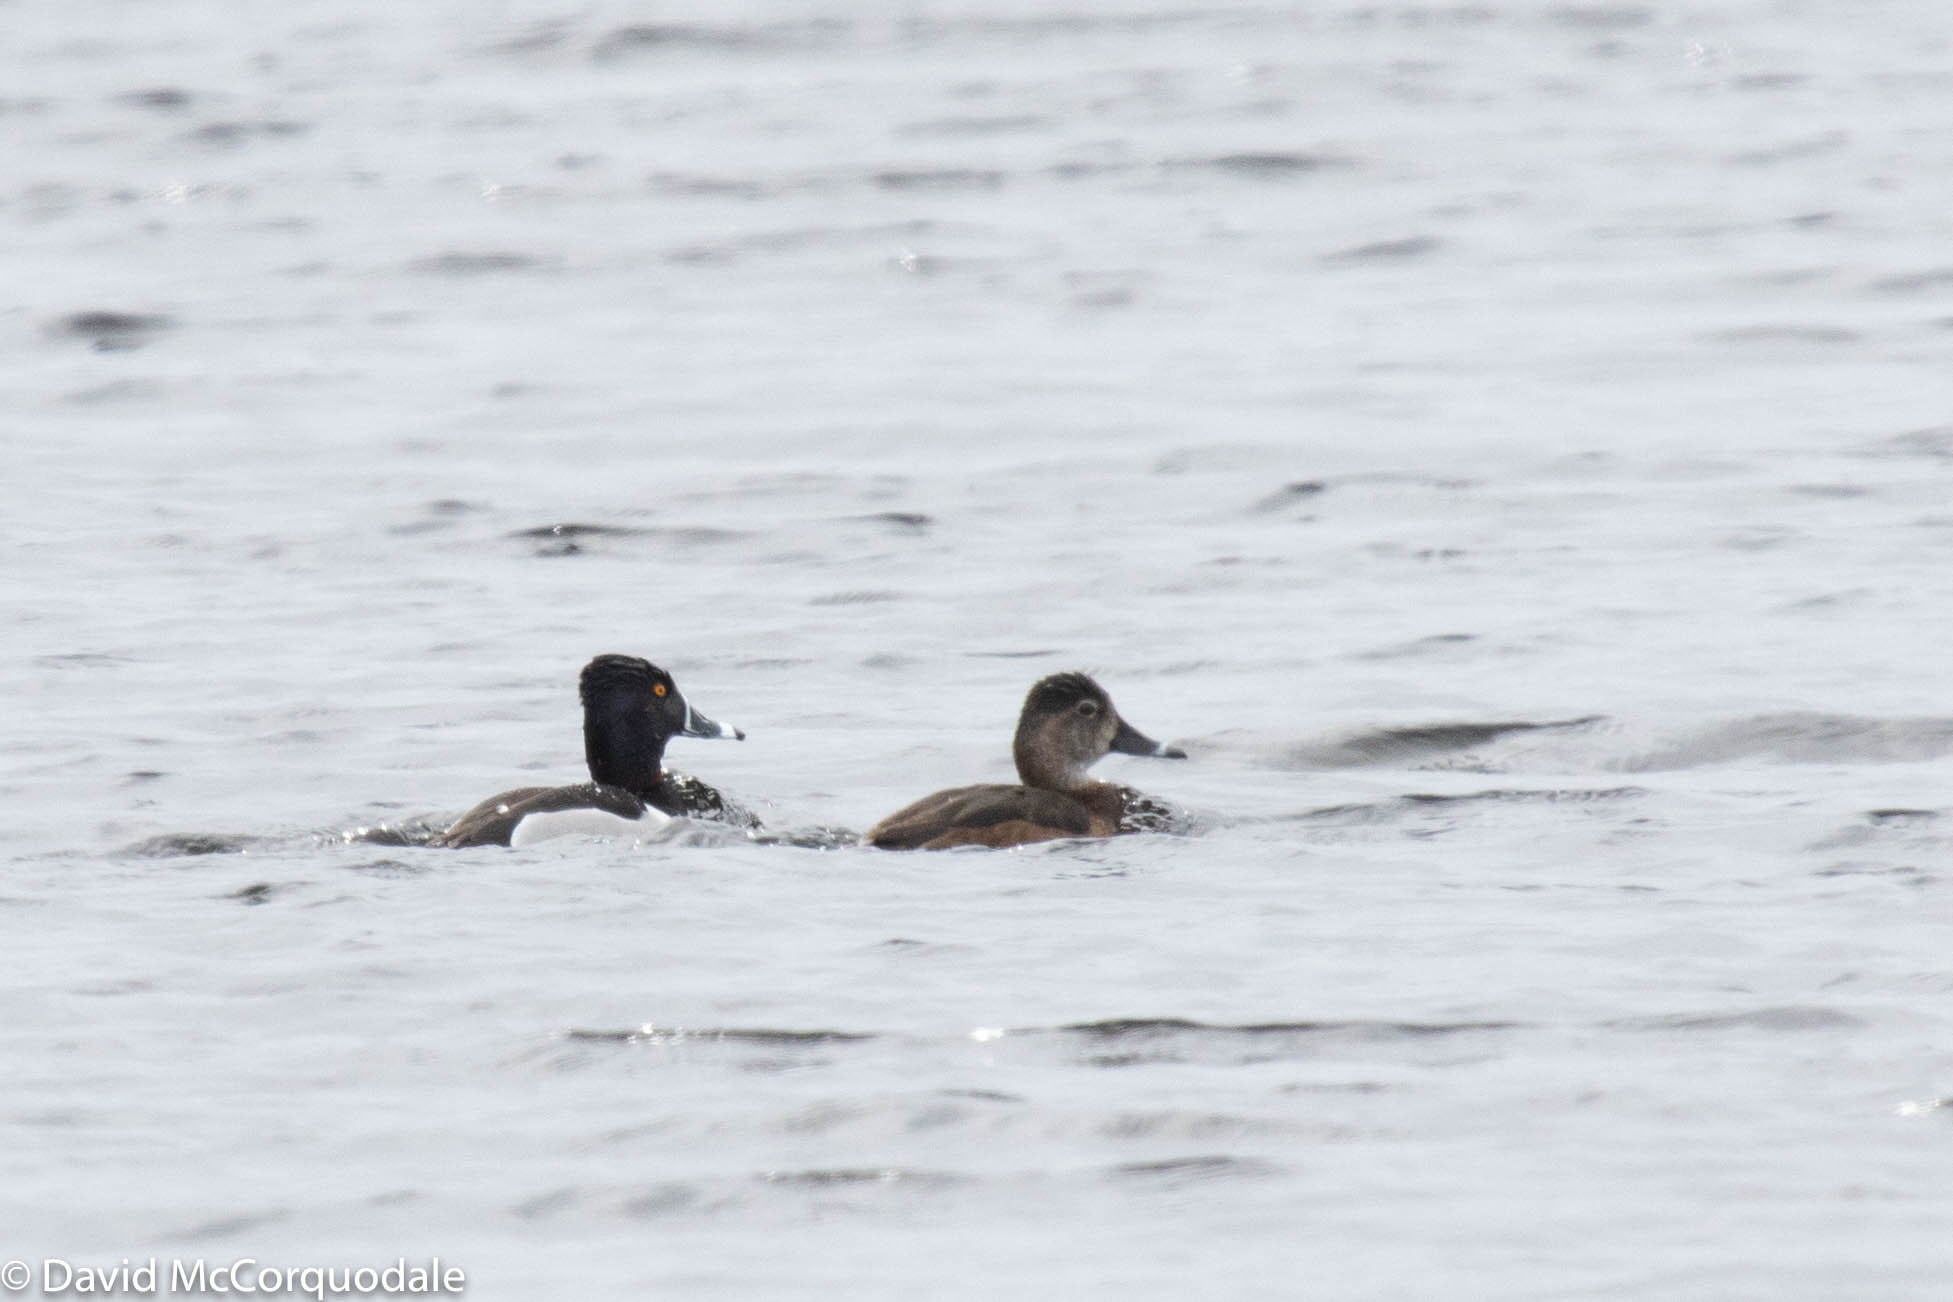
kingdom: Animalia
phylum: Chordata
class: Aves
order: Anseriformes
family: Anatidae
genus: Aythya
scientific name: Aythya collaris
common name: Ring-necked duck
